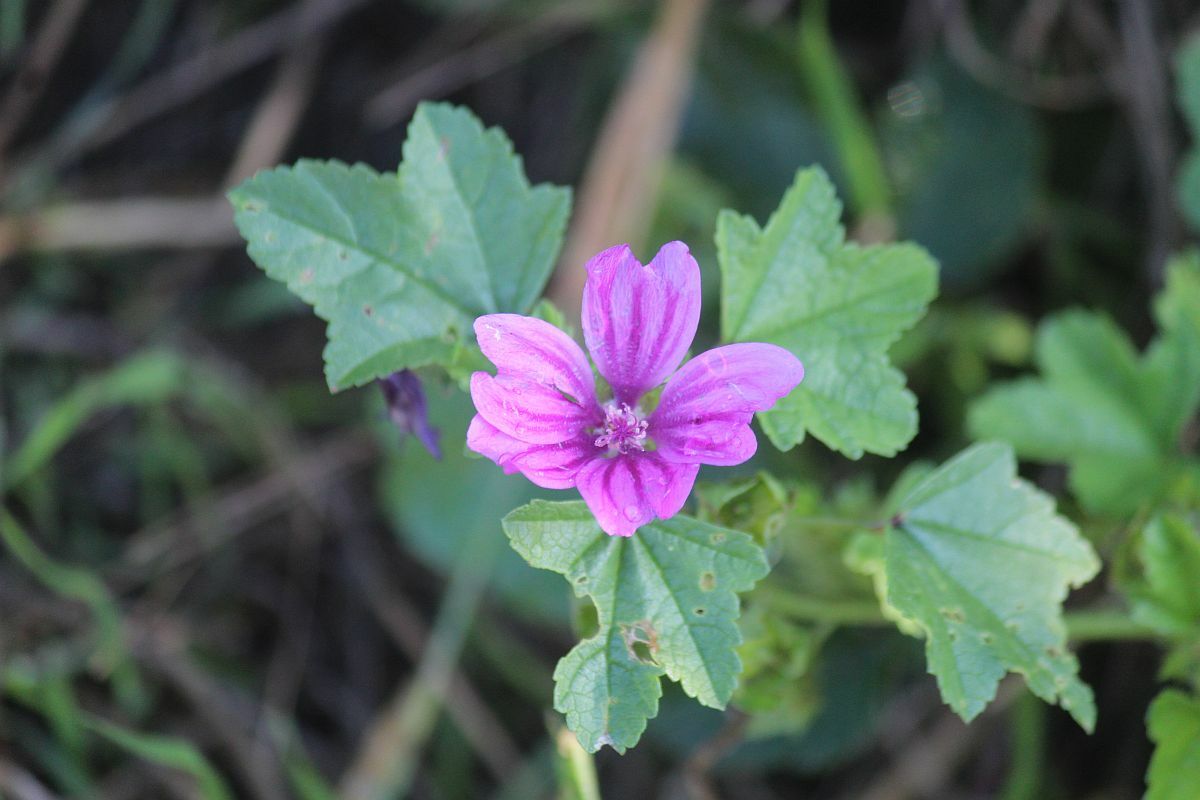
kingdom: Plantae
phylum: Tracheophyta
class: Magnoliopsida
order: Malvales
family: Malvaceae
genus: Malva
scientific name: Malva sylvestris
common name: Common mallow
